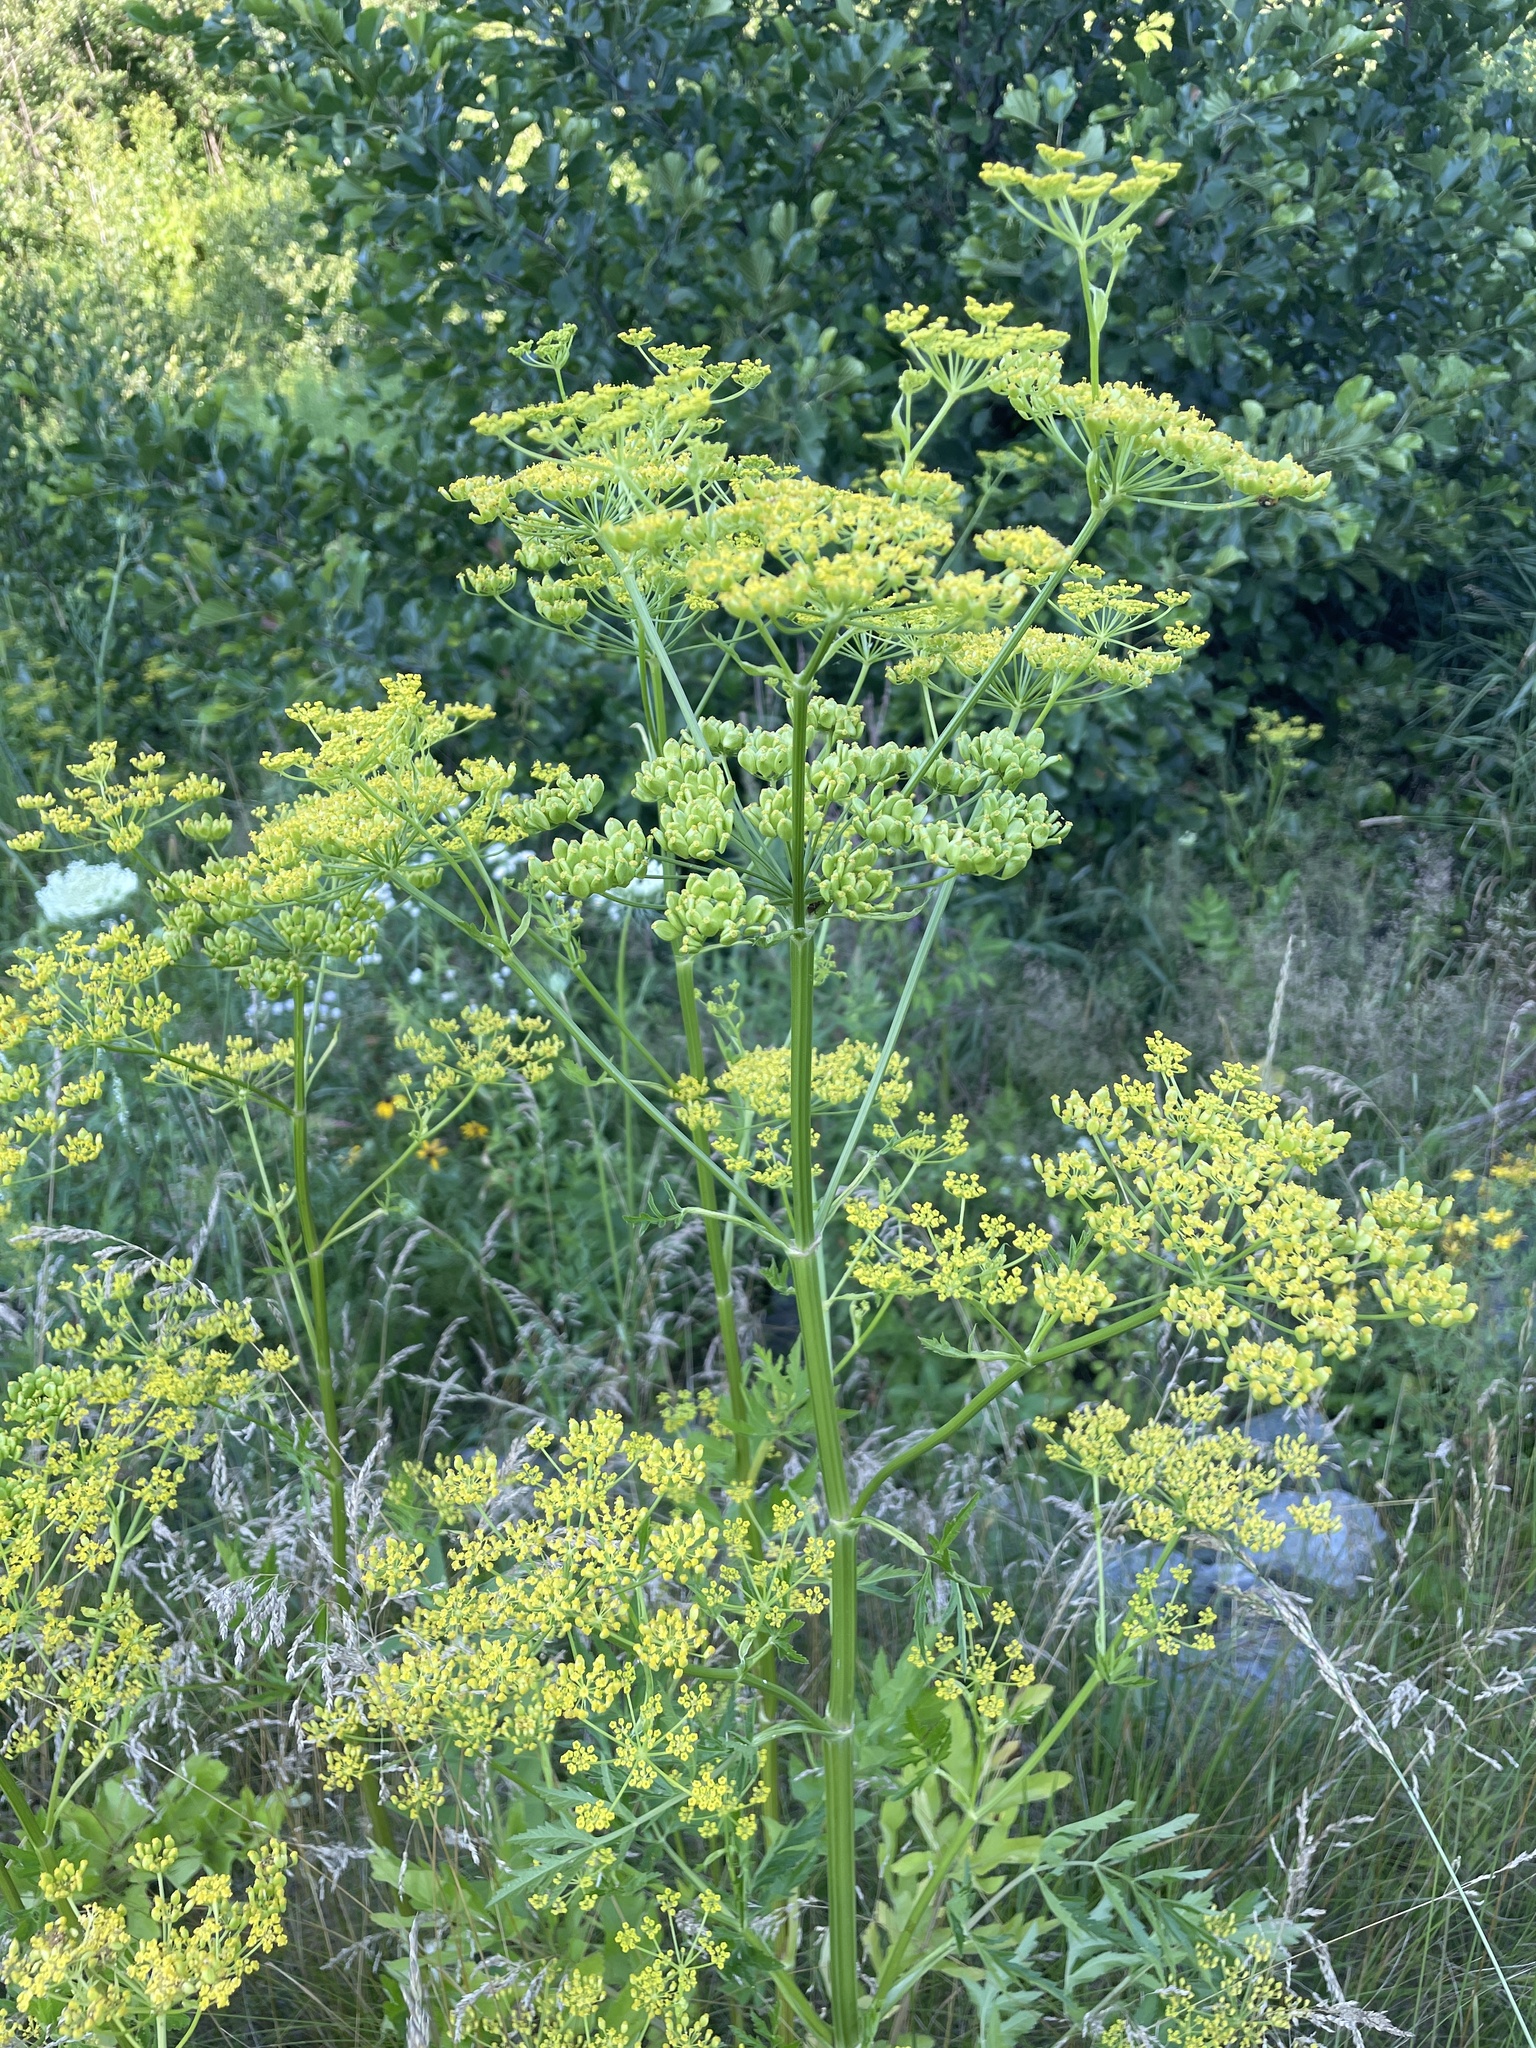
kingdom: Plantae
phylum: Tracheophyta
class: Magnoliopsida
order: Apiales
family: Apiaceae
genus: Pastinaca
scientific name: Pastinaca sativa
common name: Wild parsnip
